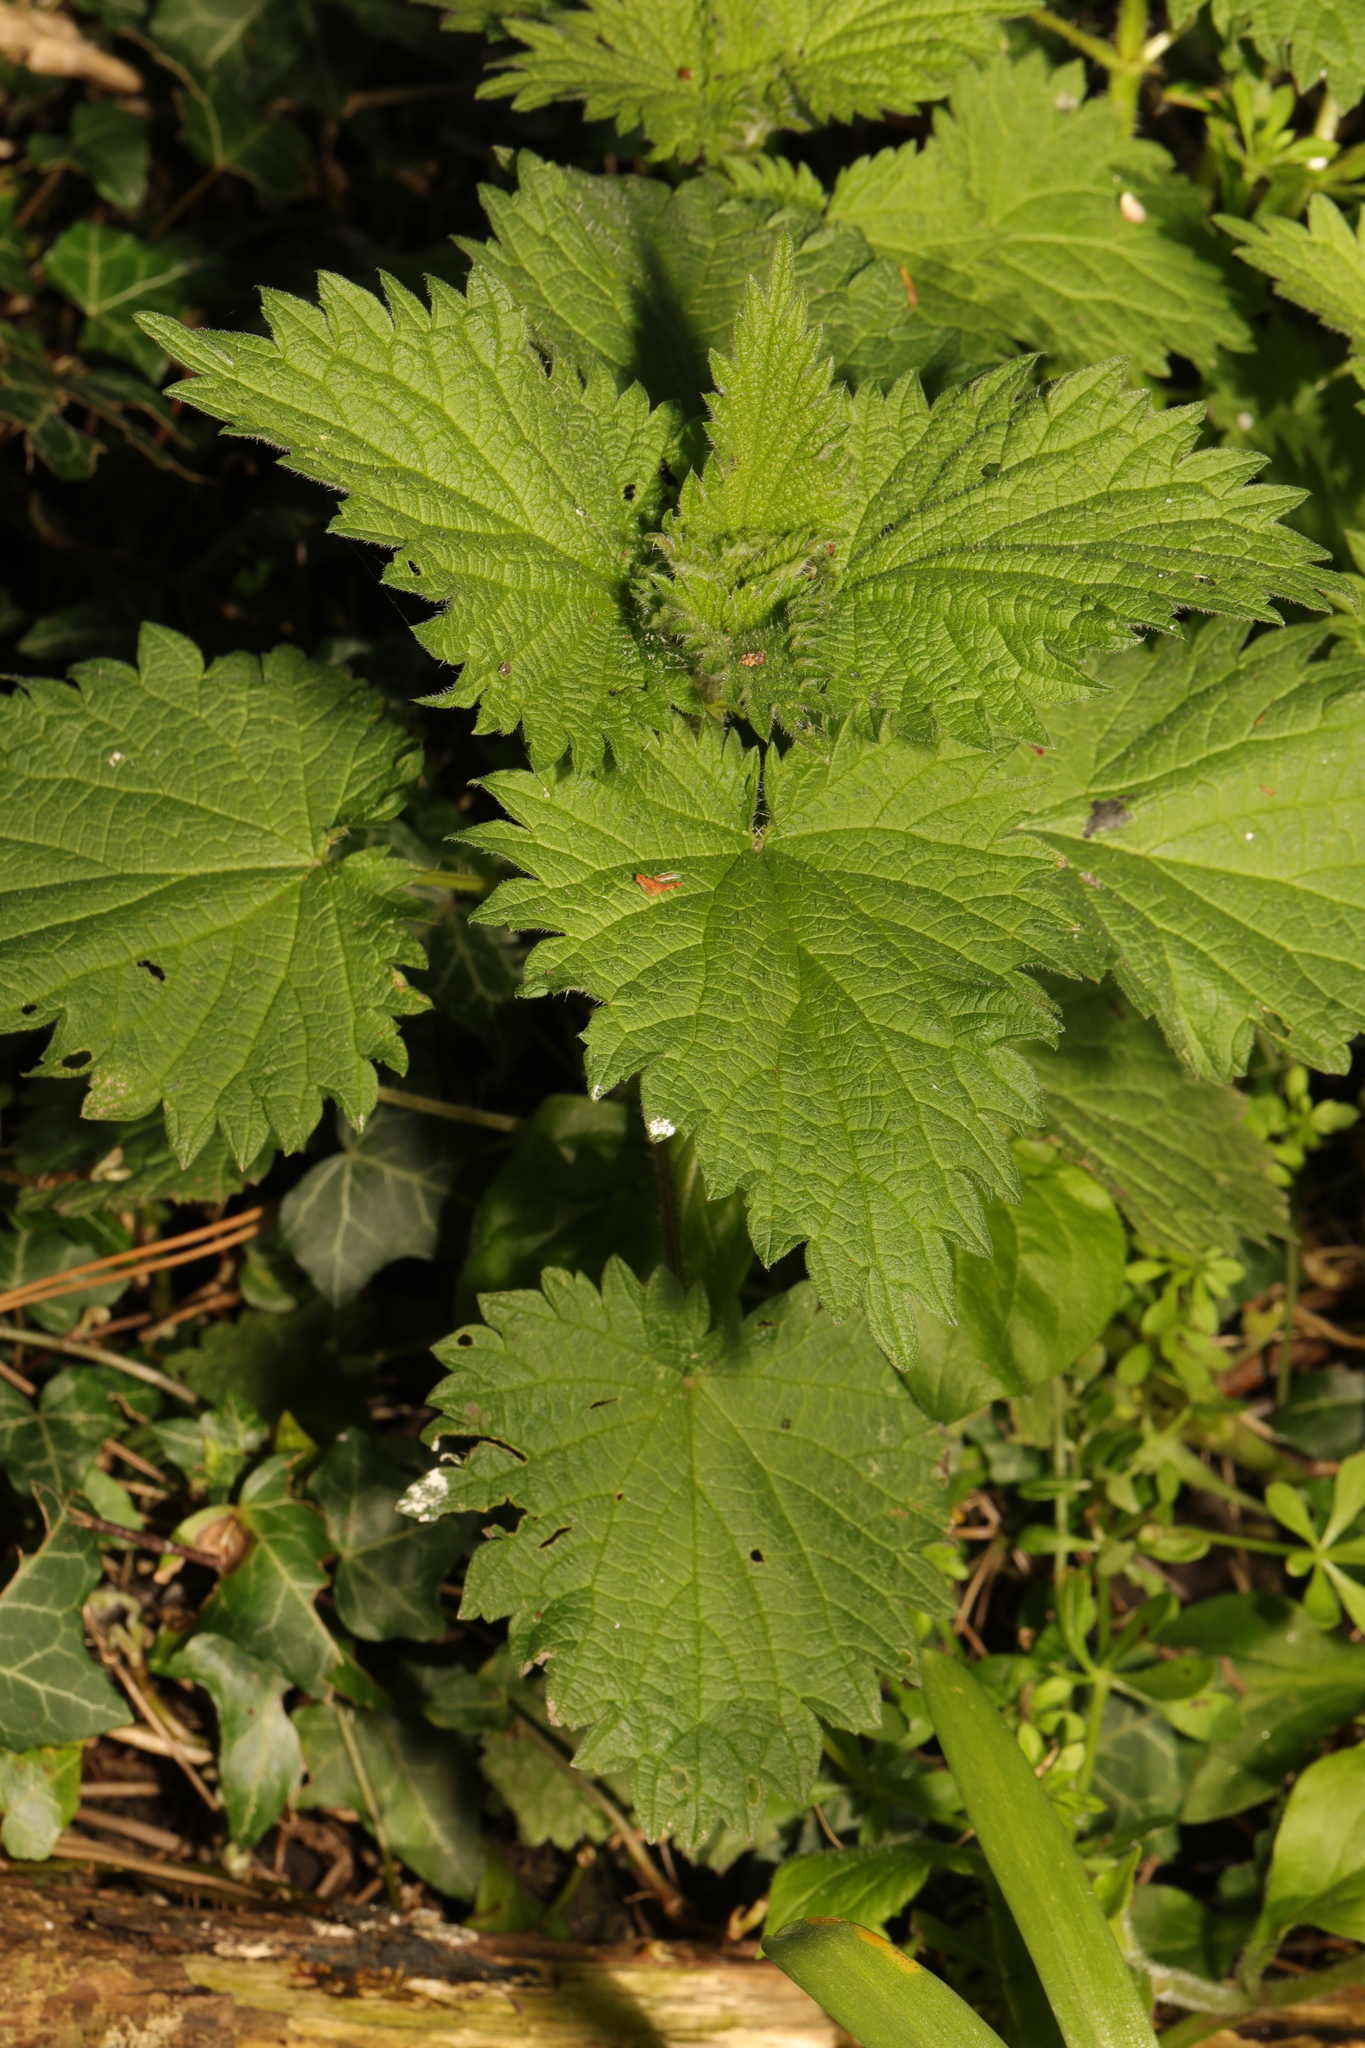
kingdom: Plantae
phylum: Tracheophyta
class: Magnoliopsida
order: Rosales
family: Urticaceae
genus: Urtica
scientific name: Urtica dioica
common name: Common nettle
